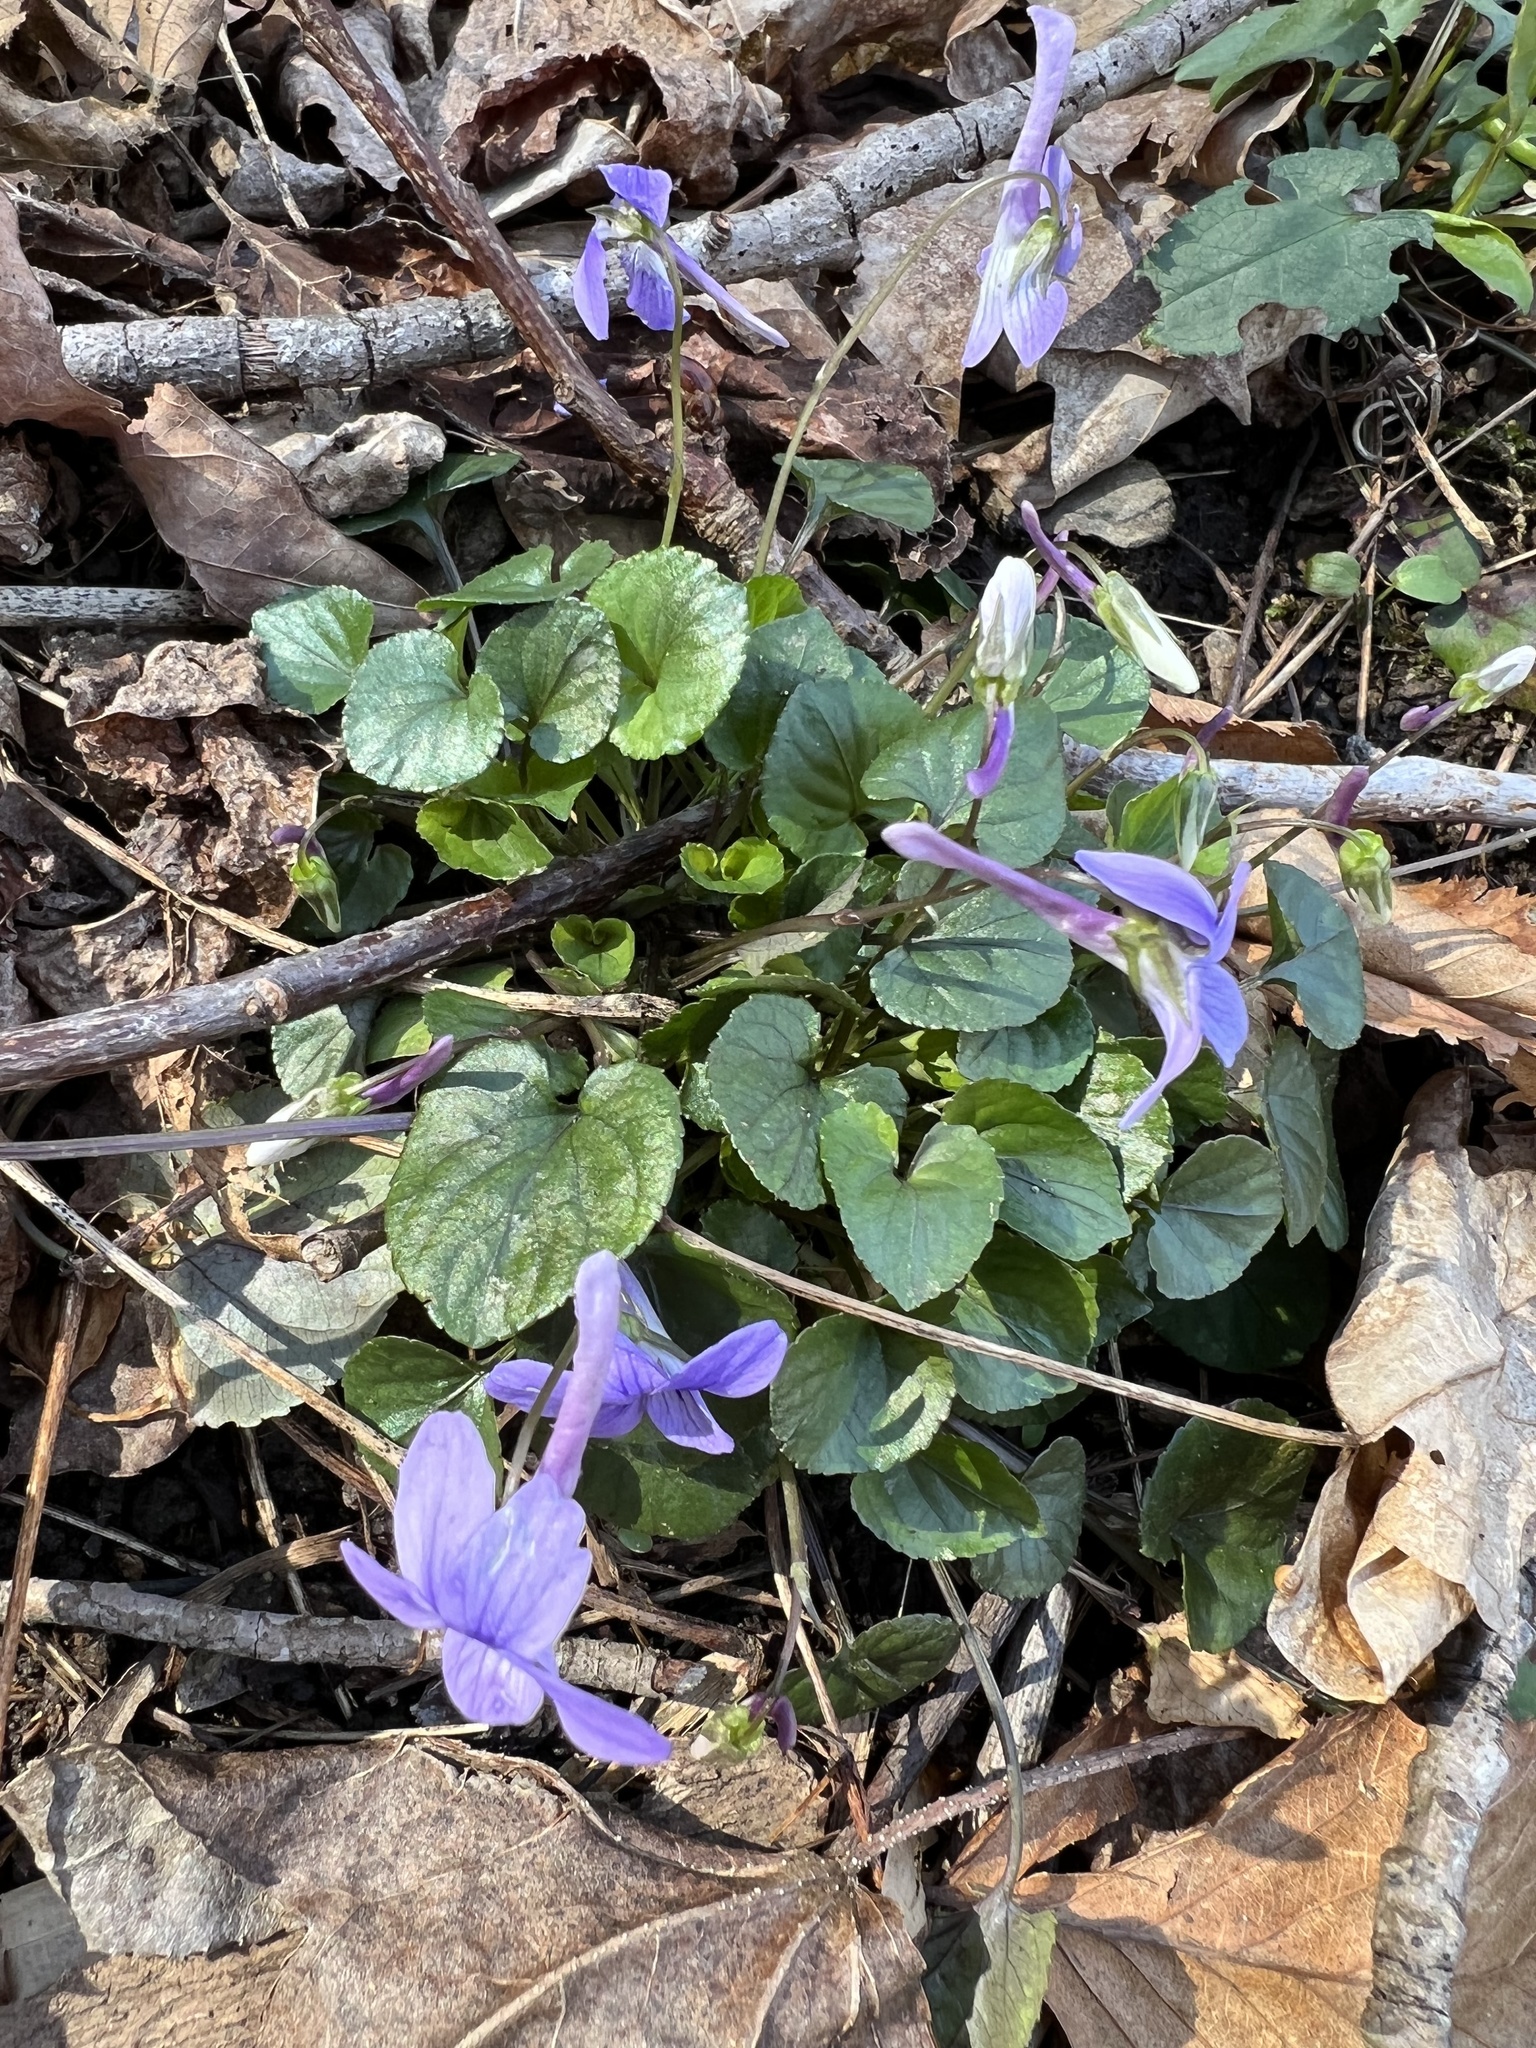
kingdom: Plantae
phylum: Tracheophyta
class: Magnoliopsida
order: Malpighiales
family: Violaceae
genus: Viola
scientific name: Viola rostrata
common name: Long-spur violet
